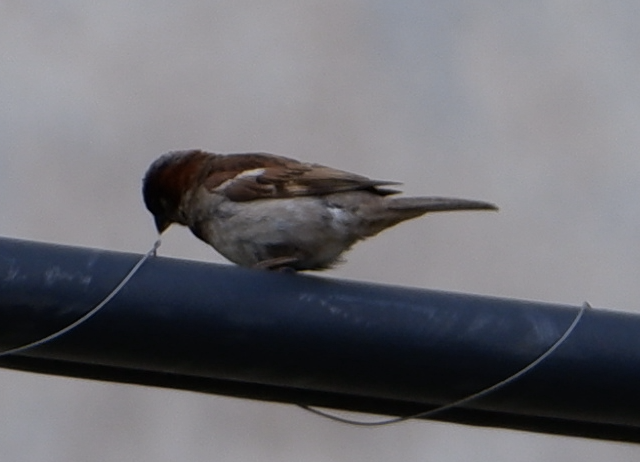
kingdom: Animalia
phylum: Chordata
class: Aves
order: Passeriformes
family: Passeridae
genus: Passer
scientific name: Passer domesticus
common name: House sparrow
